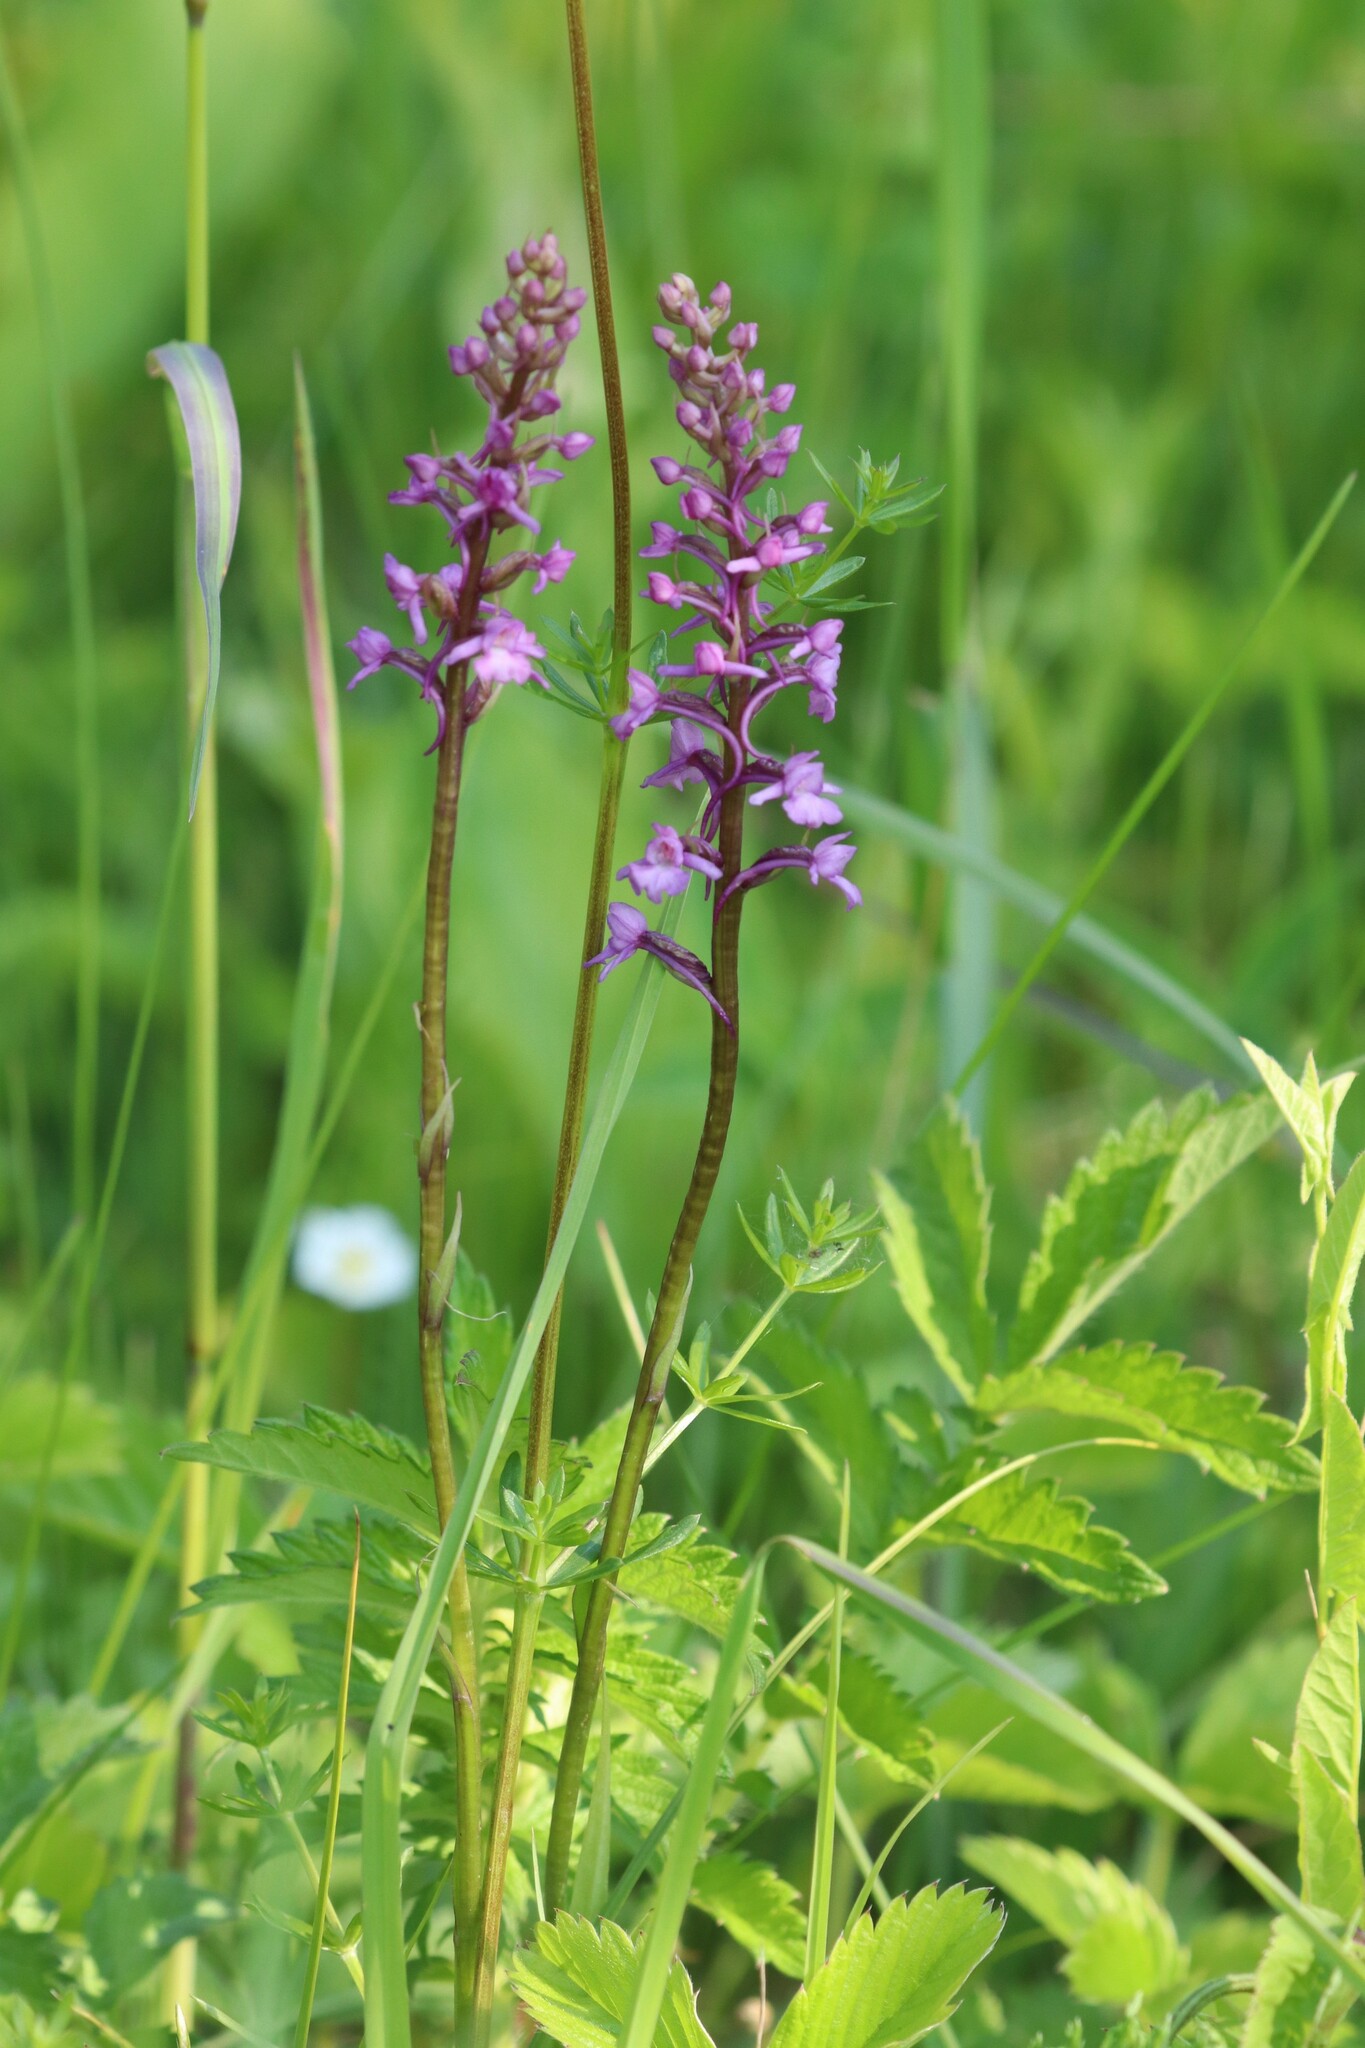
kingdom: Plantae
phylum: Tracheophyta
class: Liliopsida
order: Asparagales
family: Orchidaceae
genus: Gymnadenia
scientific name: Gymnadenia conopsea
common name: Fragrant orchid
